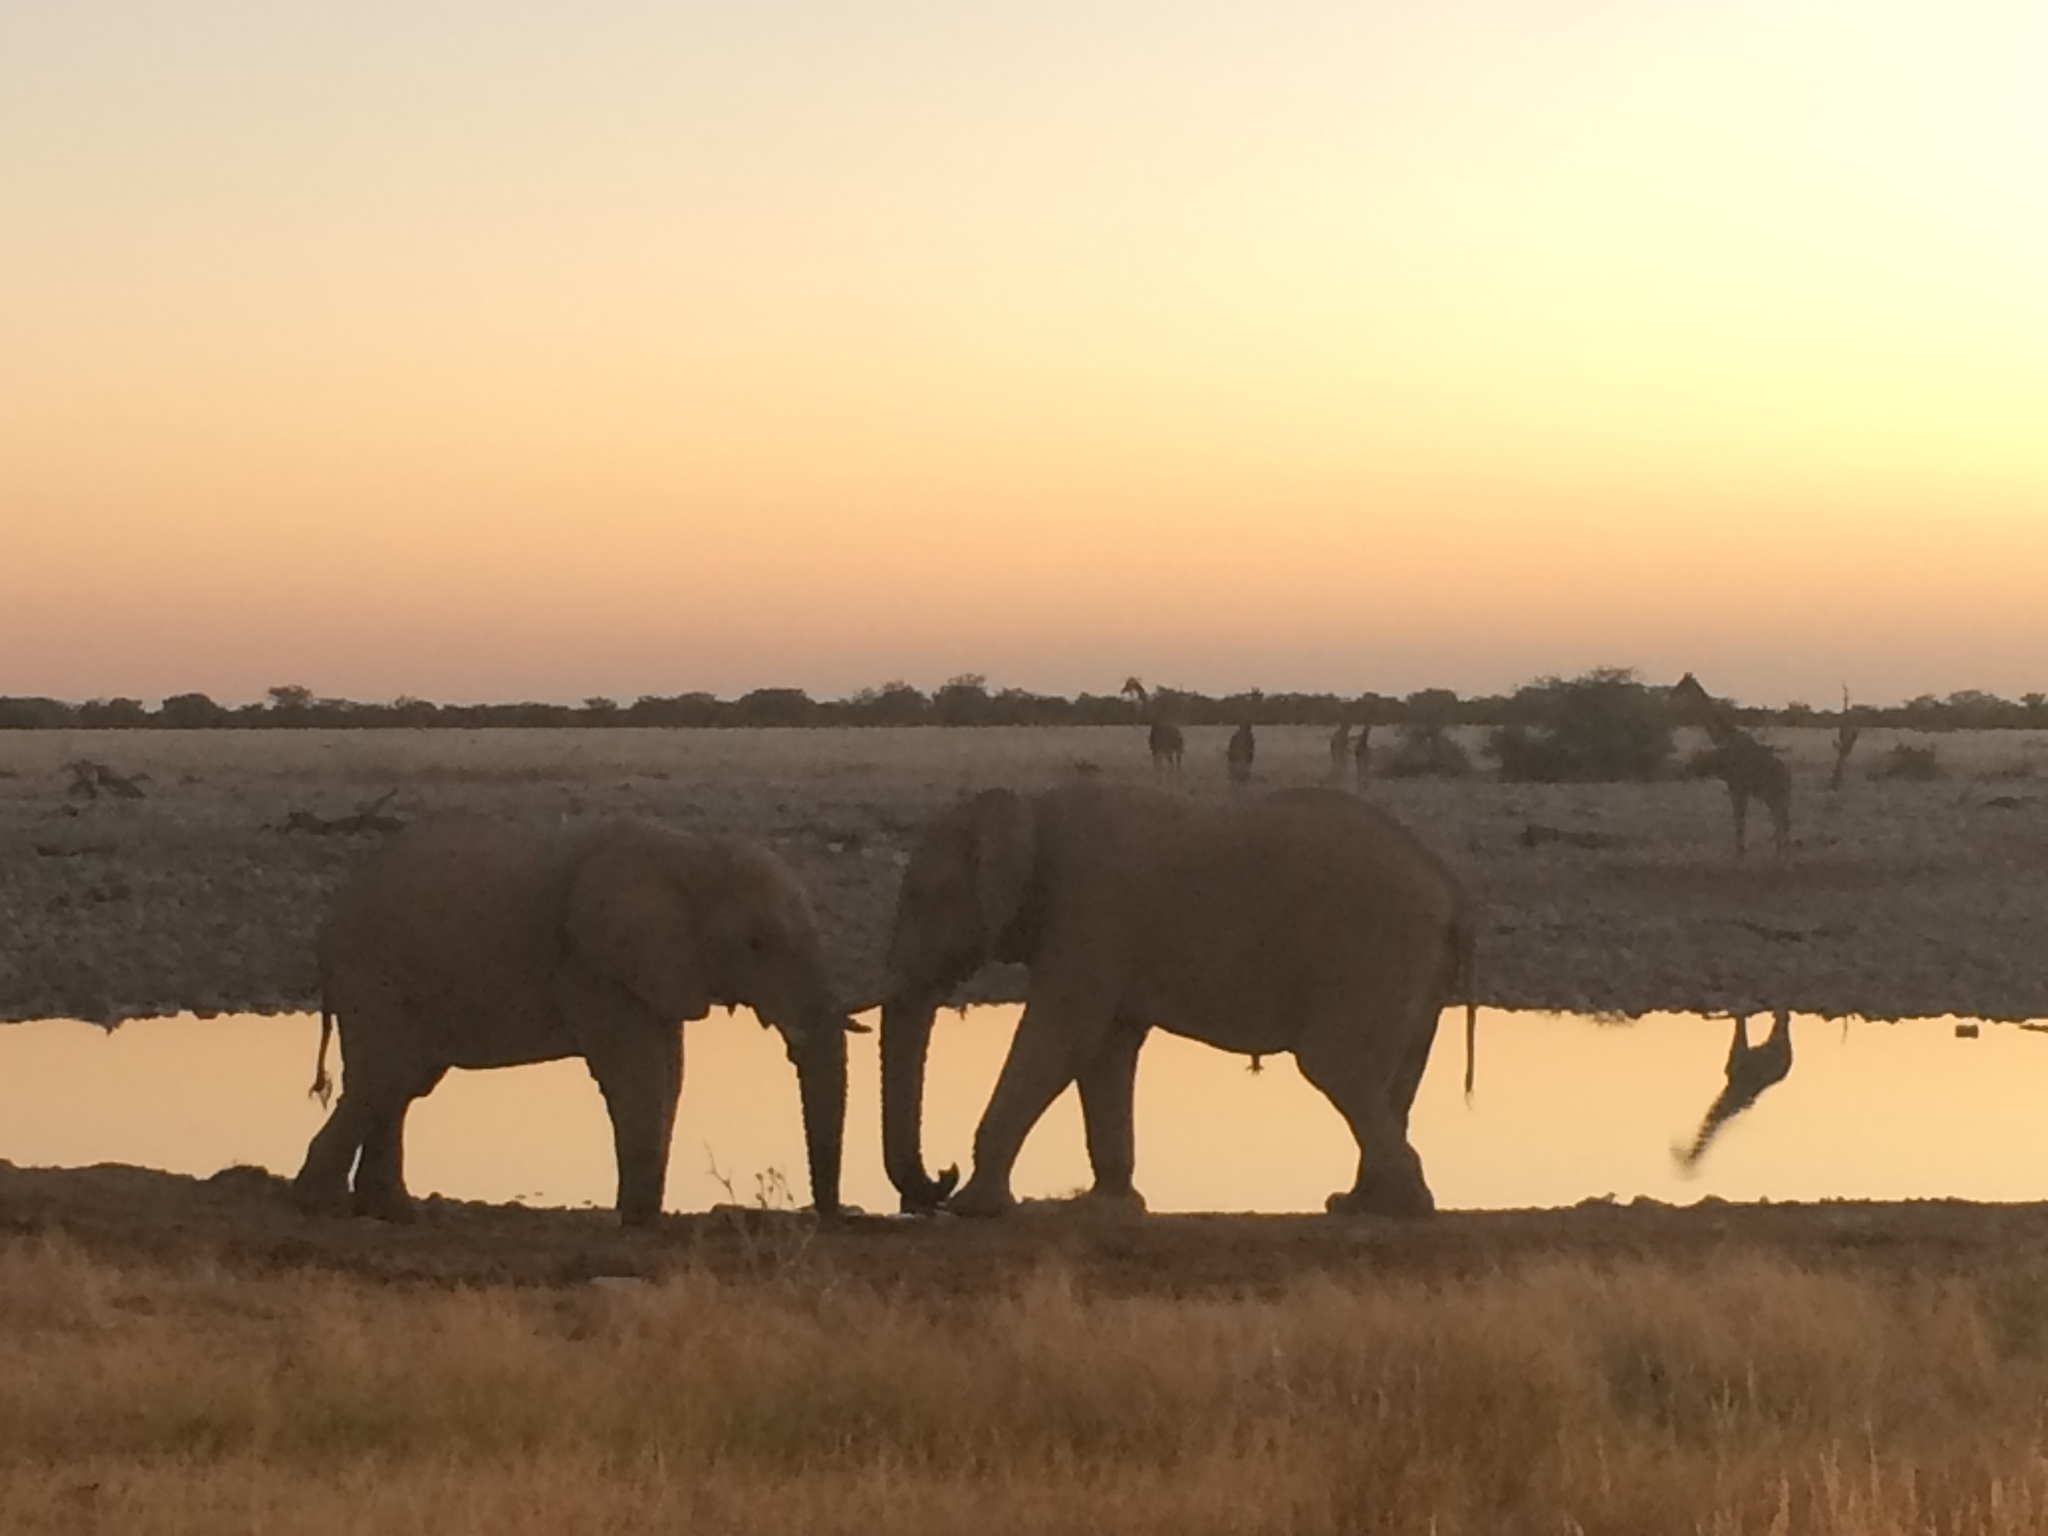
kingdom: Animalia
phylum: Chordata
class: Mammalia
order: Proboscidea
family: Elephantidae
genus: Loxodonta
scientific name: Loxodonta africana
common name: African elephant
